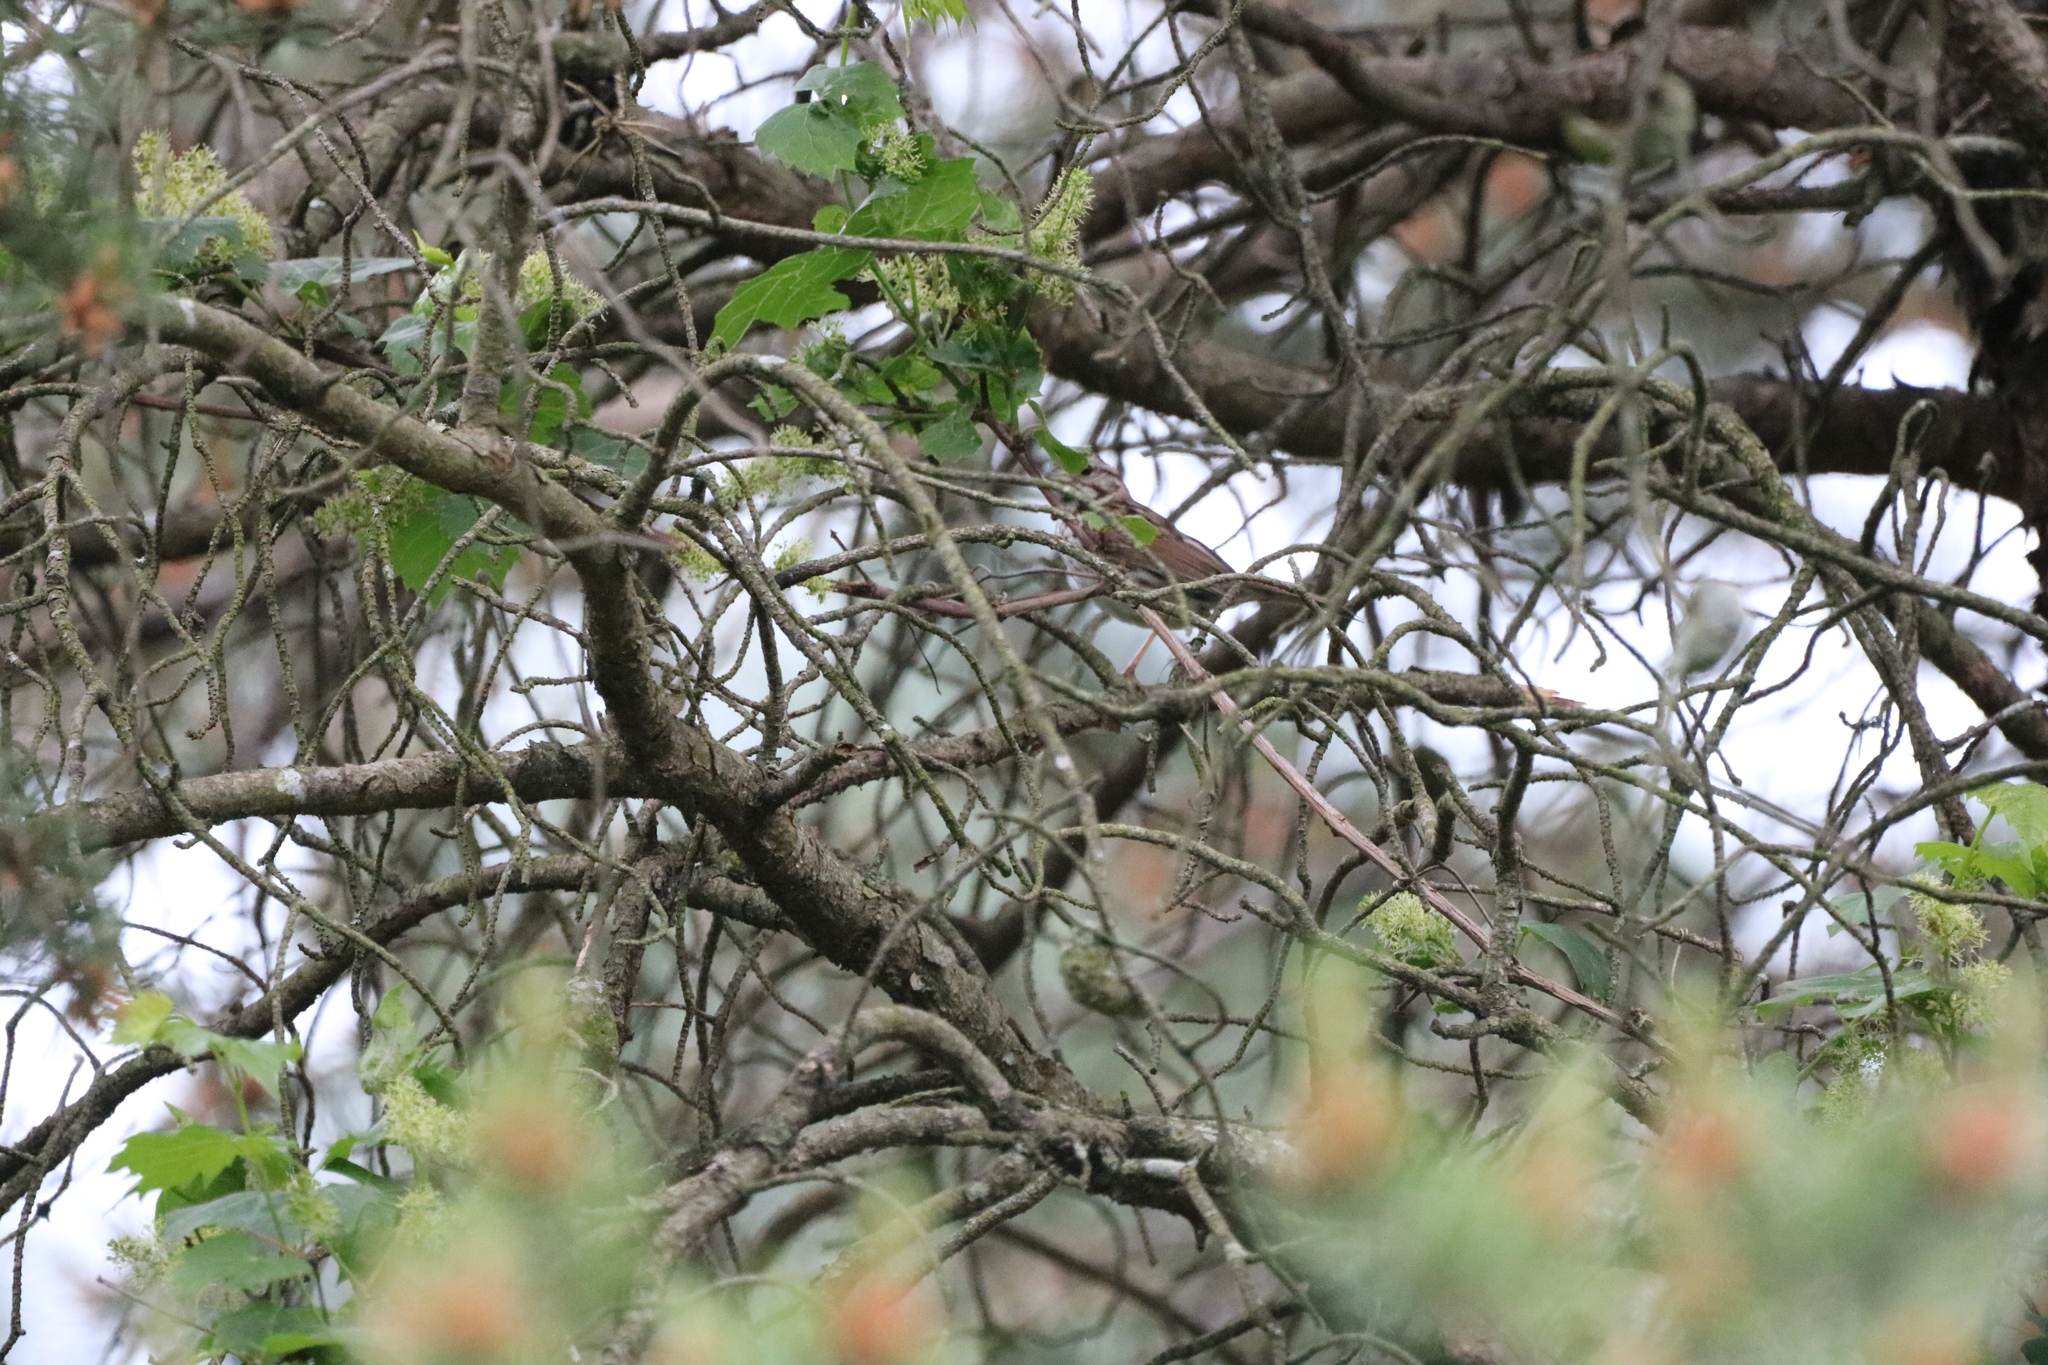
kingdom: Animalia
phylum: Chordata
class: Aves
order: Passeriformes
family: Passerellidae
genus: Melospiza
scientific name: Melospiza melodia
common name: Song sparrow
